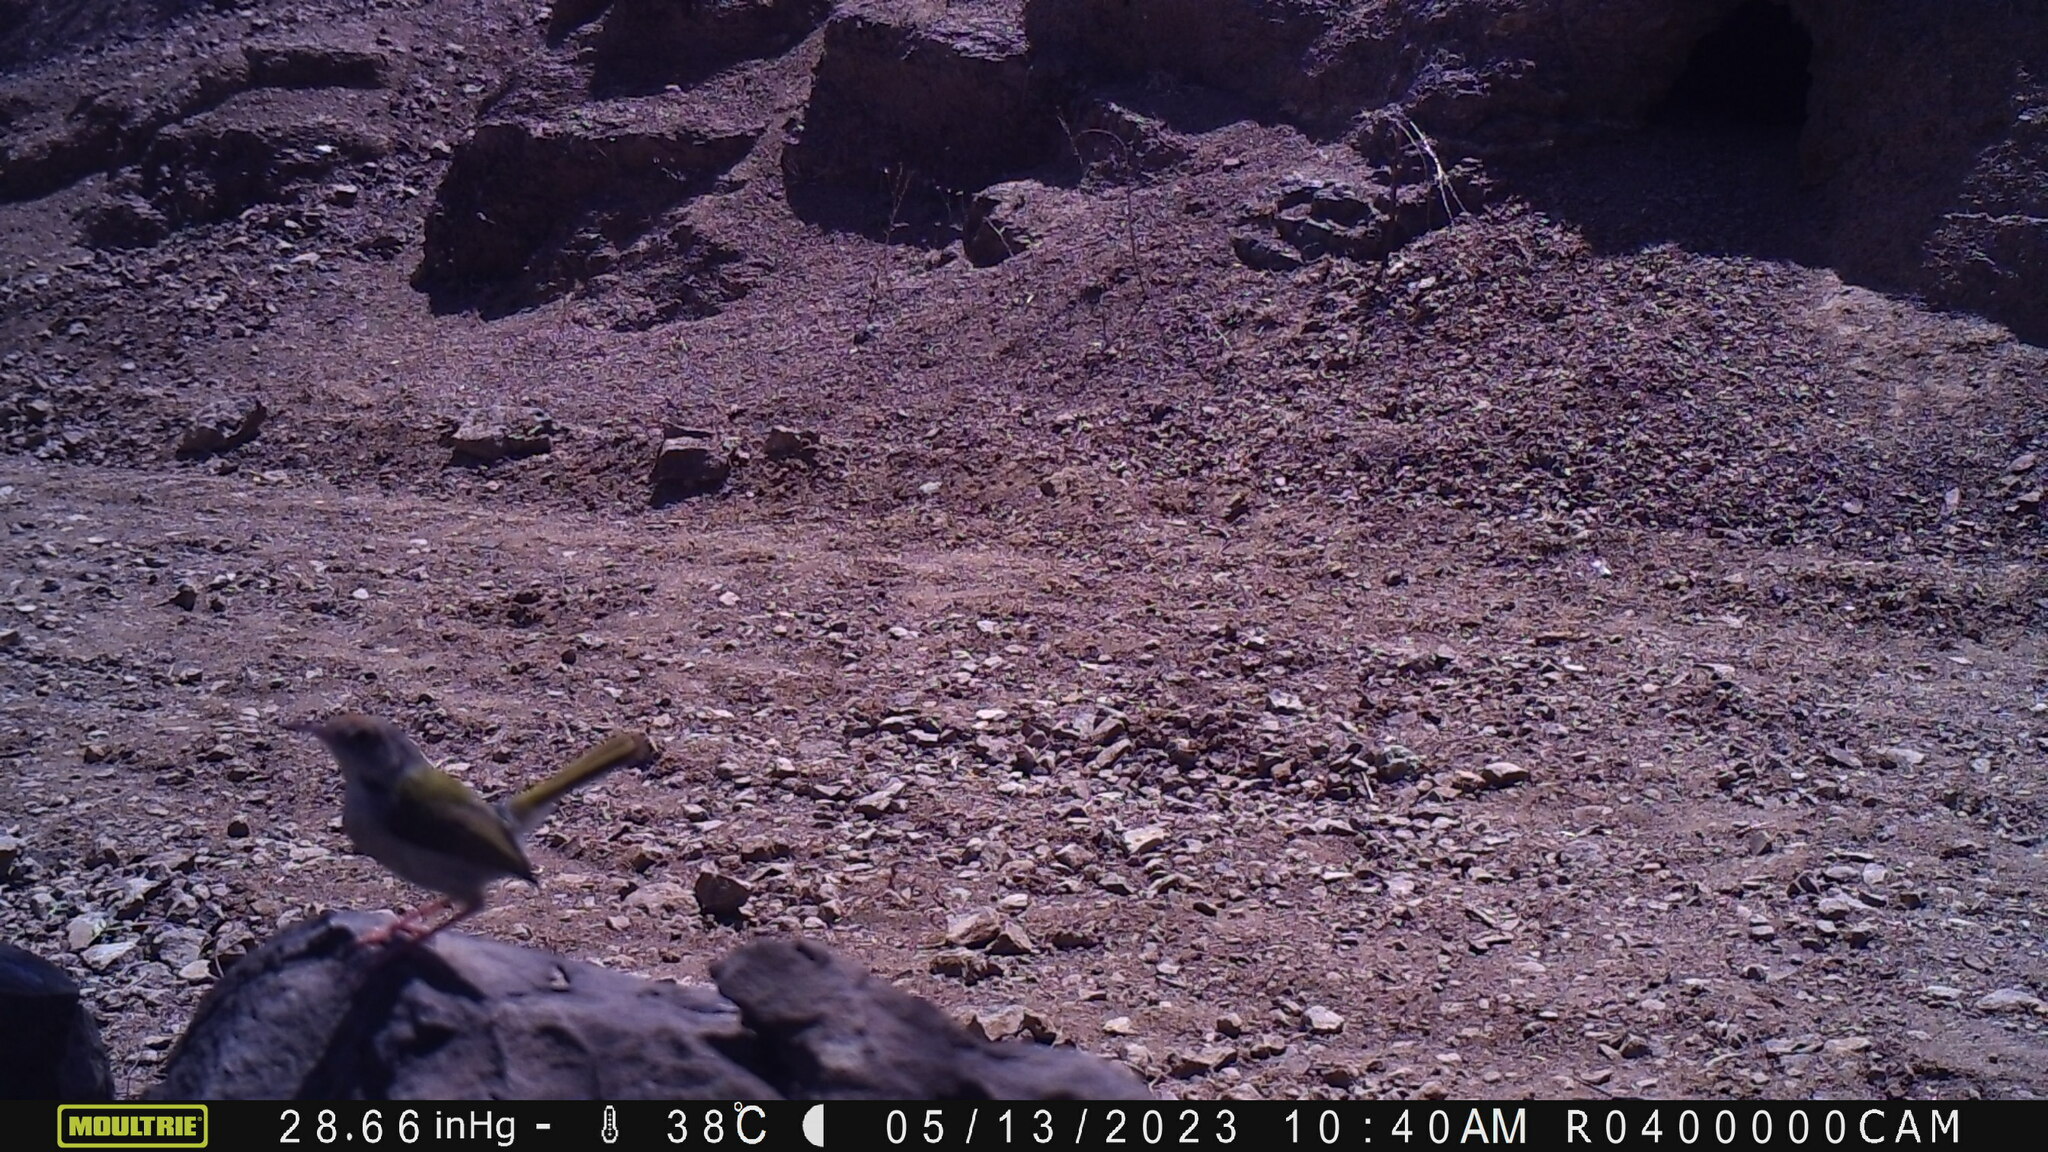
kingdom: Animalia
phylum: Chordata
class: Aves
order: Passeriformes
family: Cisticolidae
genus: Orthotomus
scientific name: Orthotomus sutorius
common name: Common tailorbird
